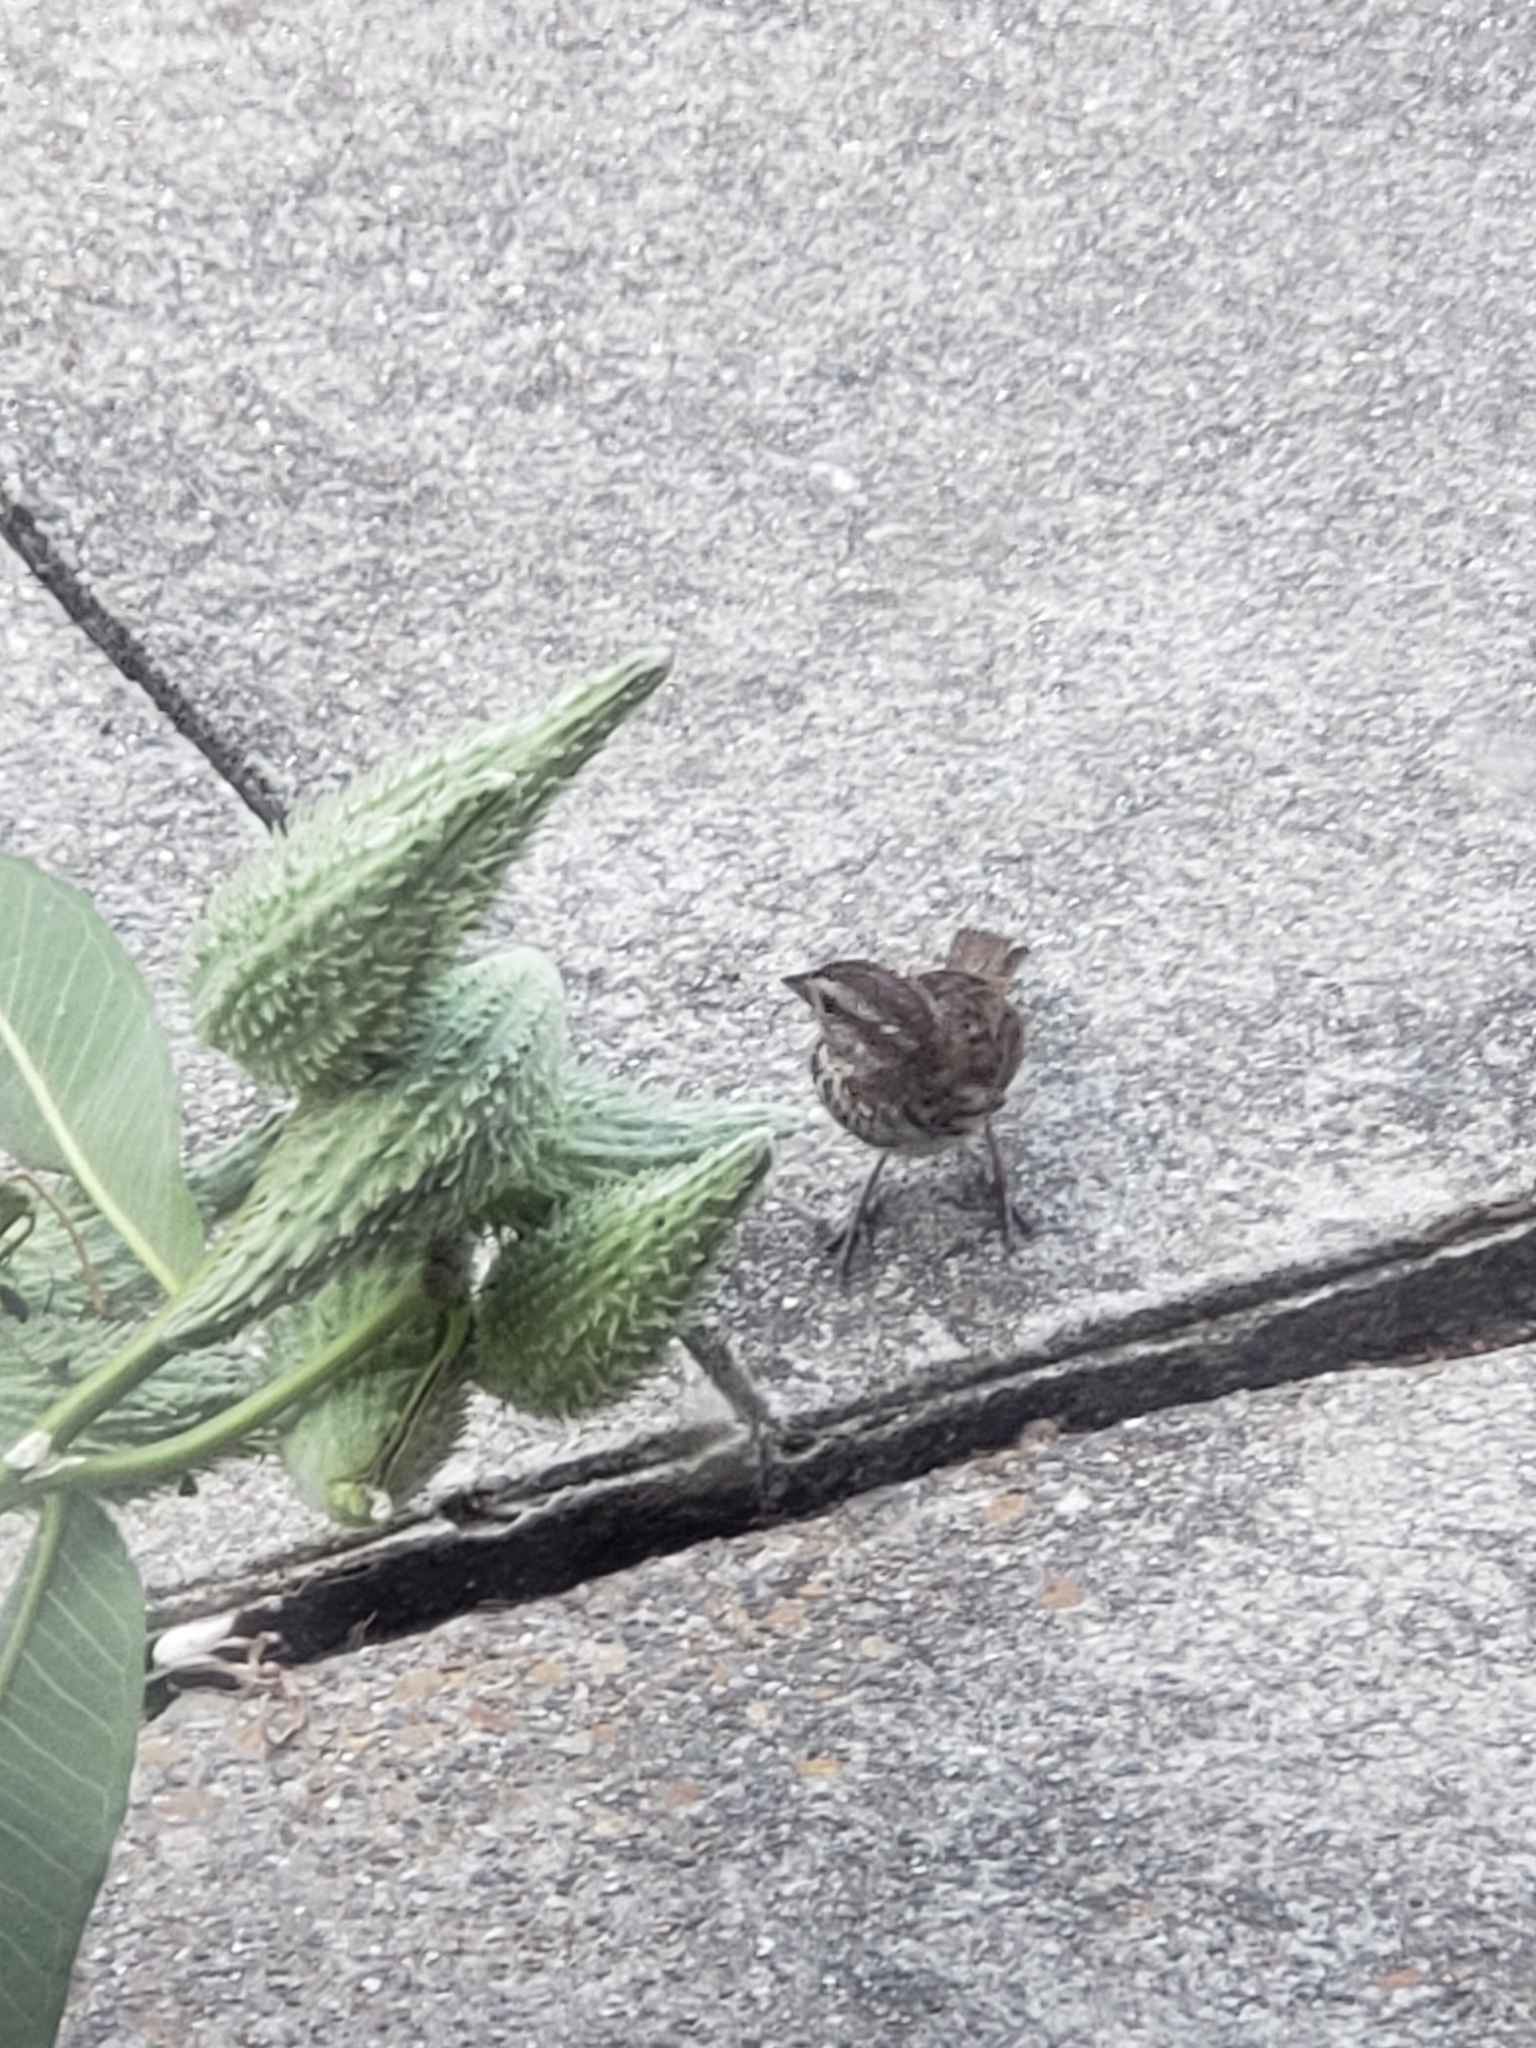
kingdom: Animalia
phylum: Chordata
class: Aves
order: Passeriformes
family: Passerellidae
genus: Melospiza
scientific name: Melospiza melodia
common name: Song sparrow
